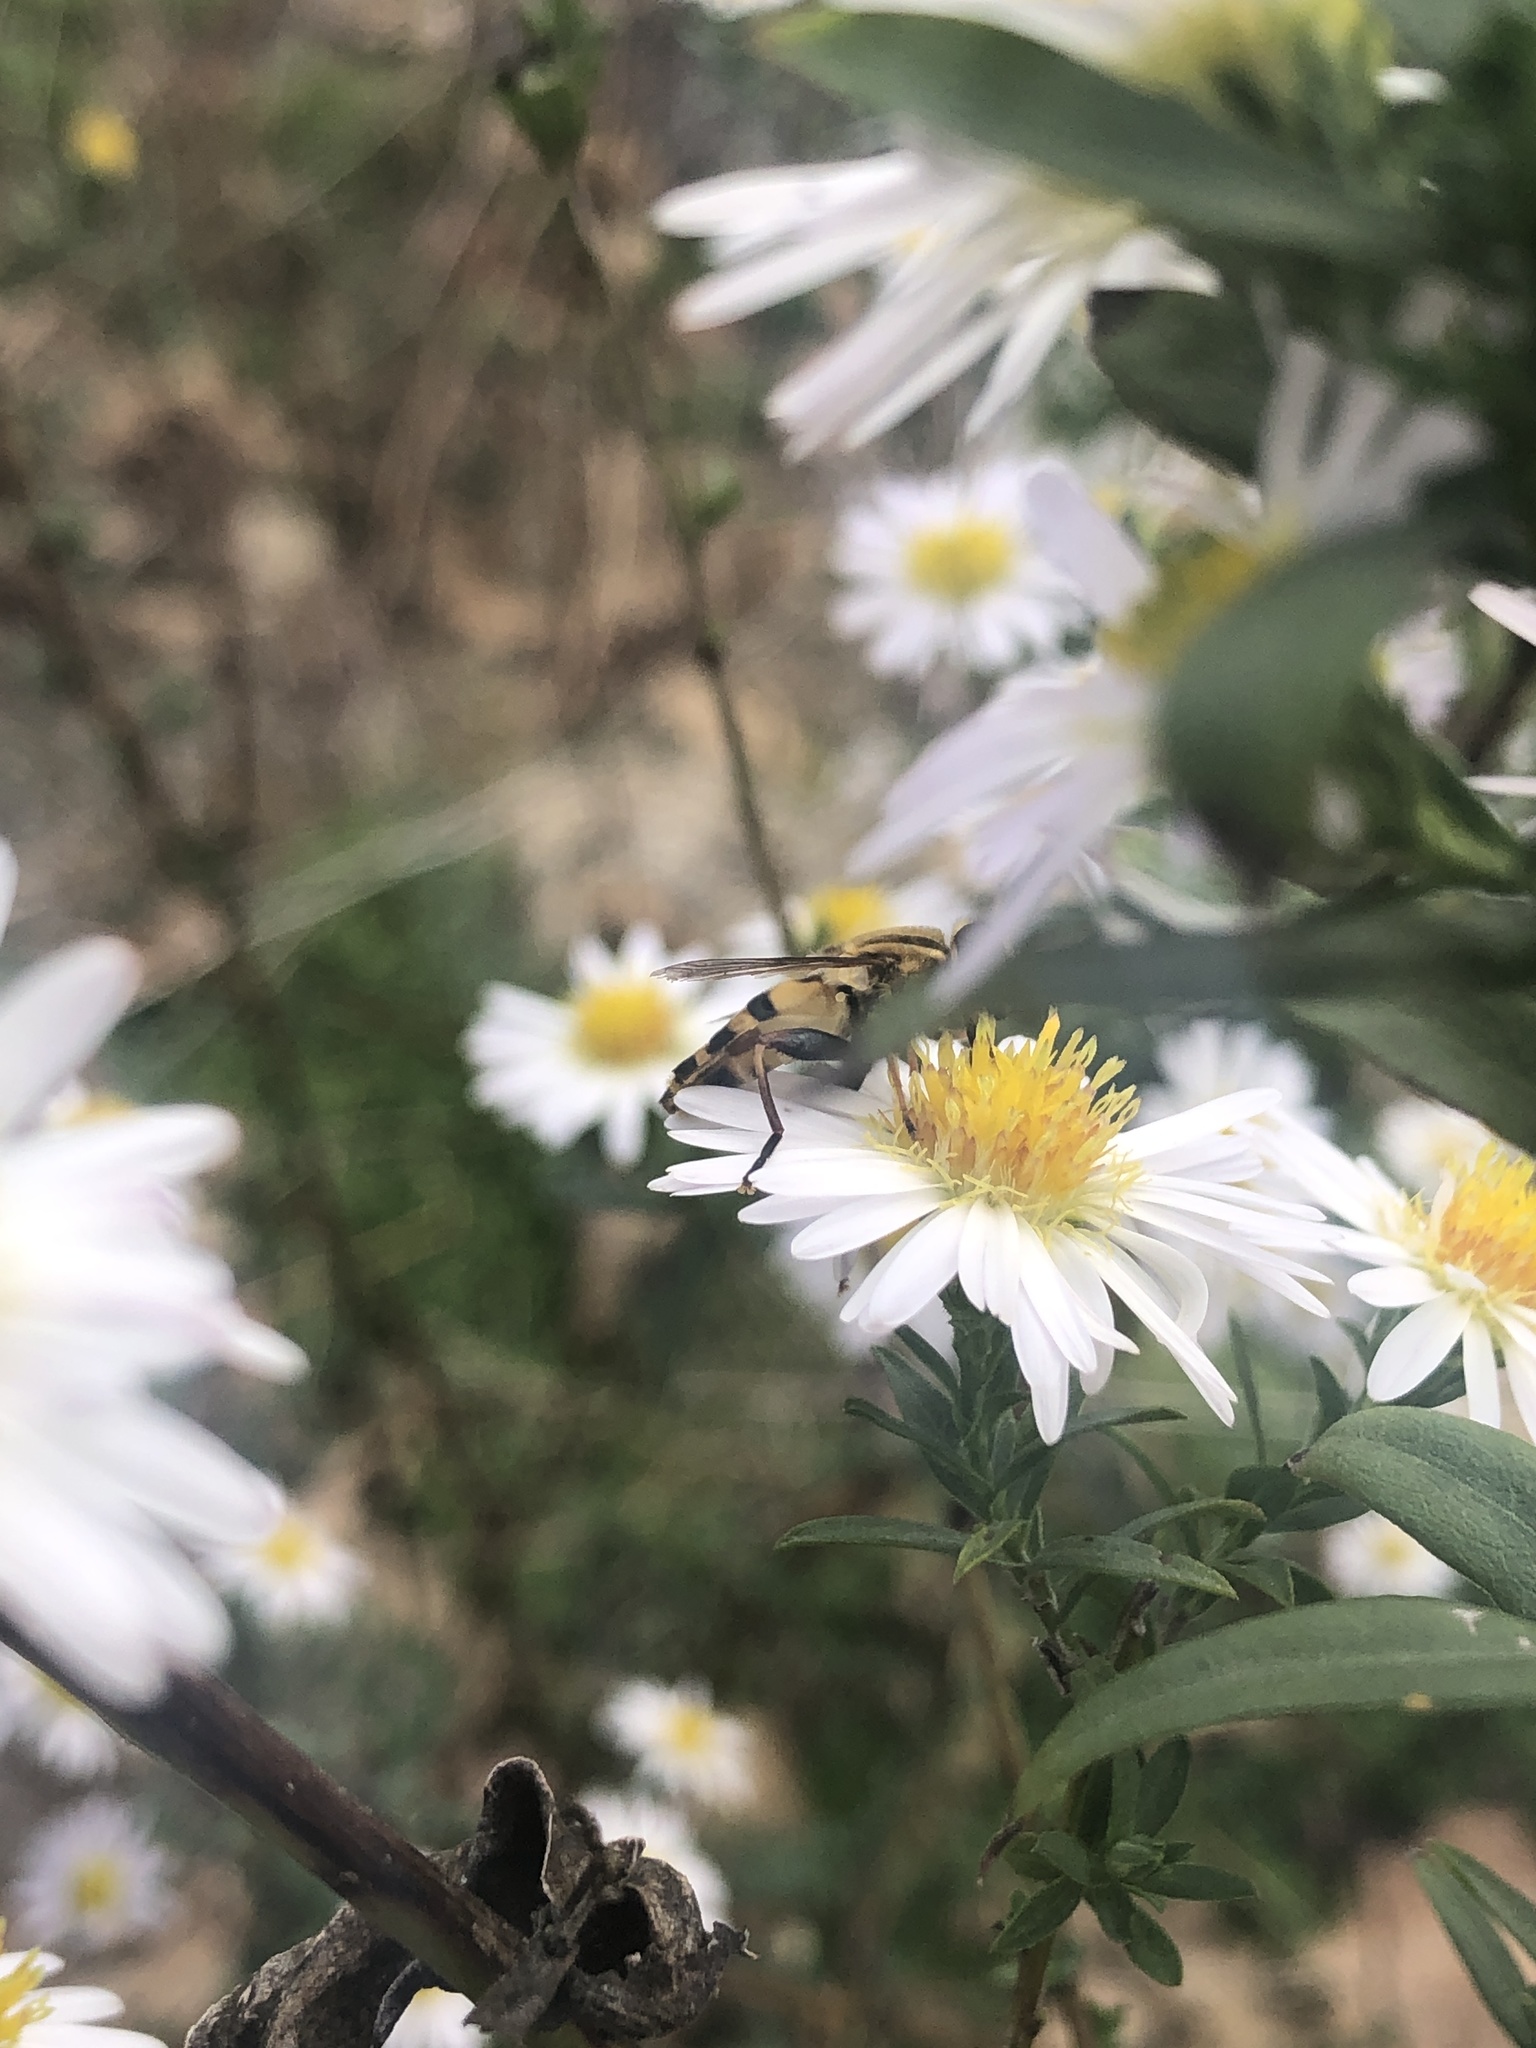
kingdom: Animalia
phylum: Arthropoda
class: Insecta
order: Diptera
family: Syrphidae
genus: Helophilus
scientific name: Helophilus fasciatus
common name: Narrow-headed marsh fly
